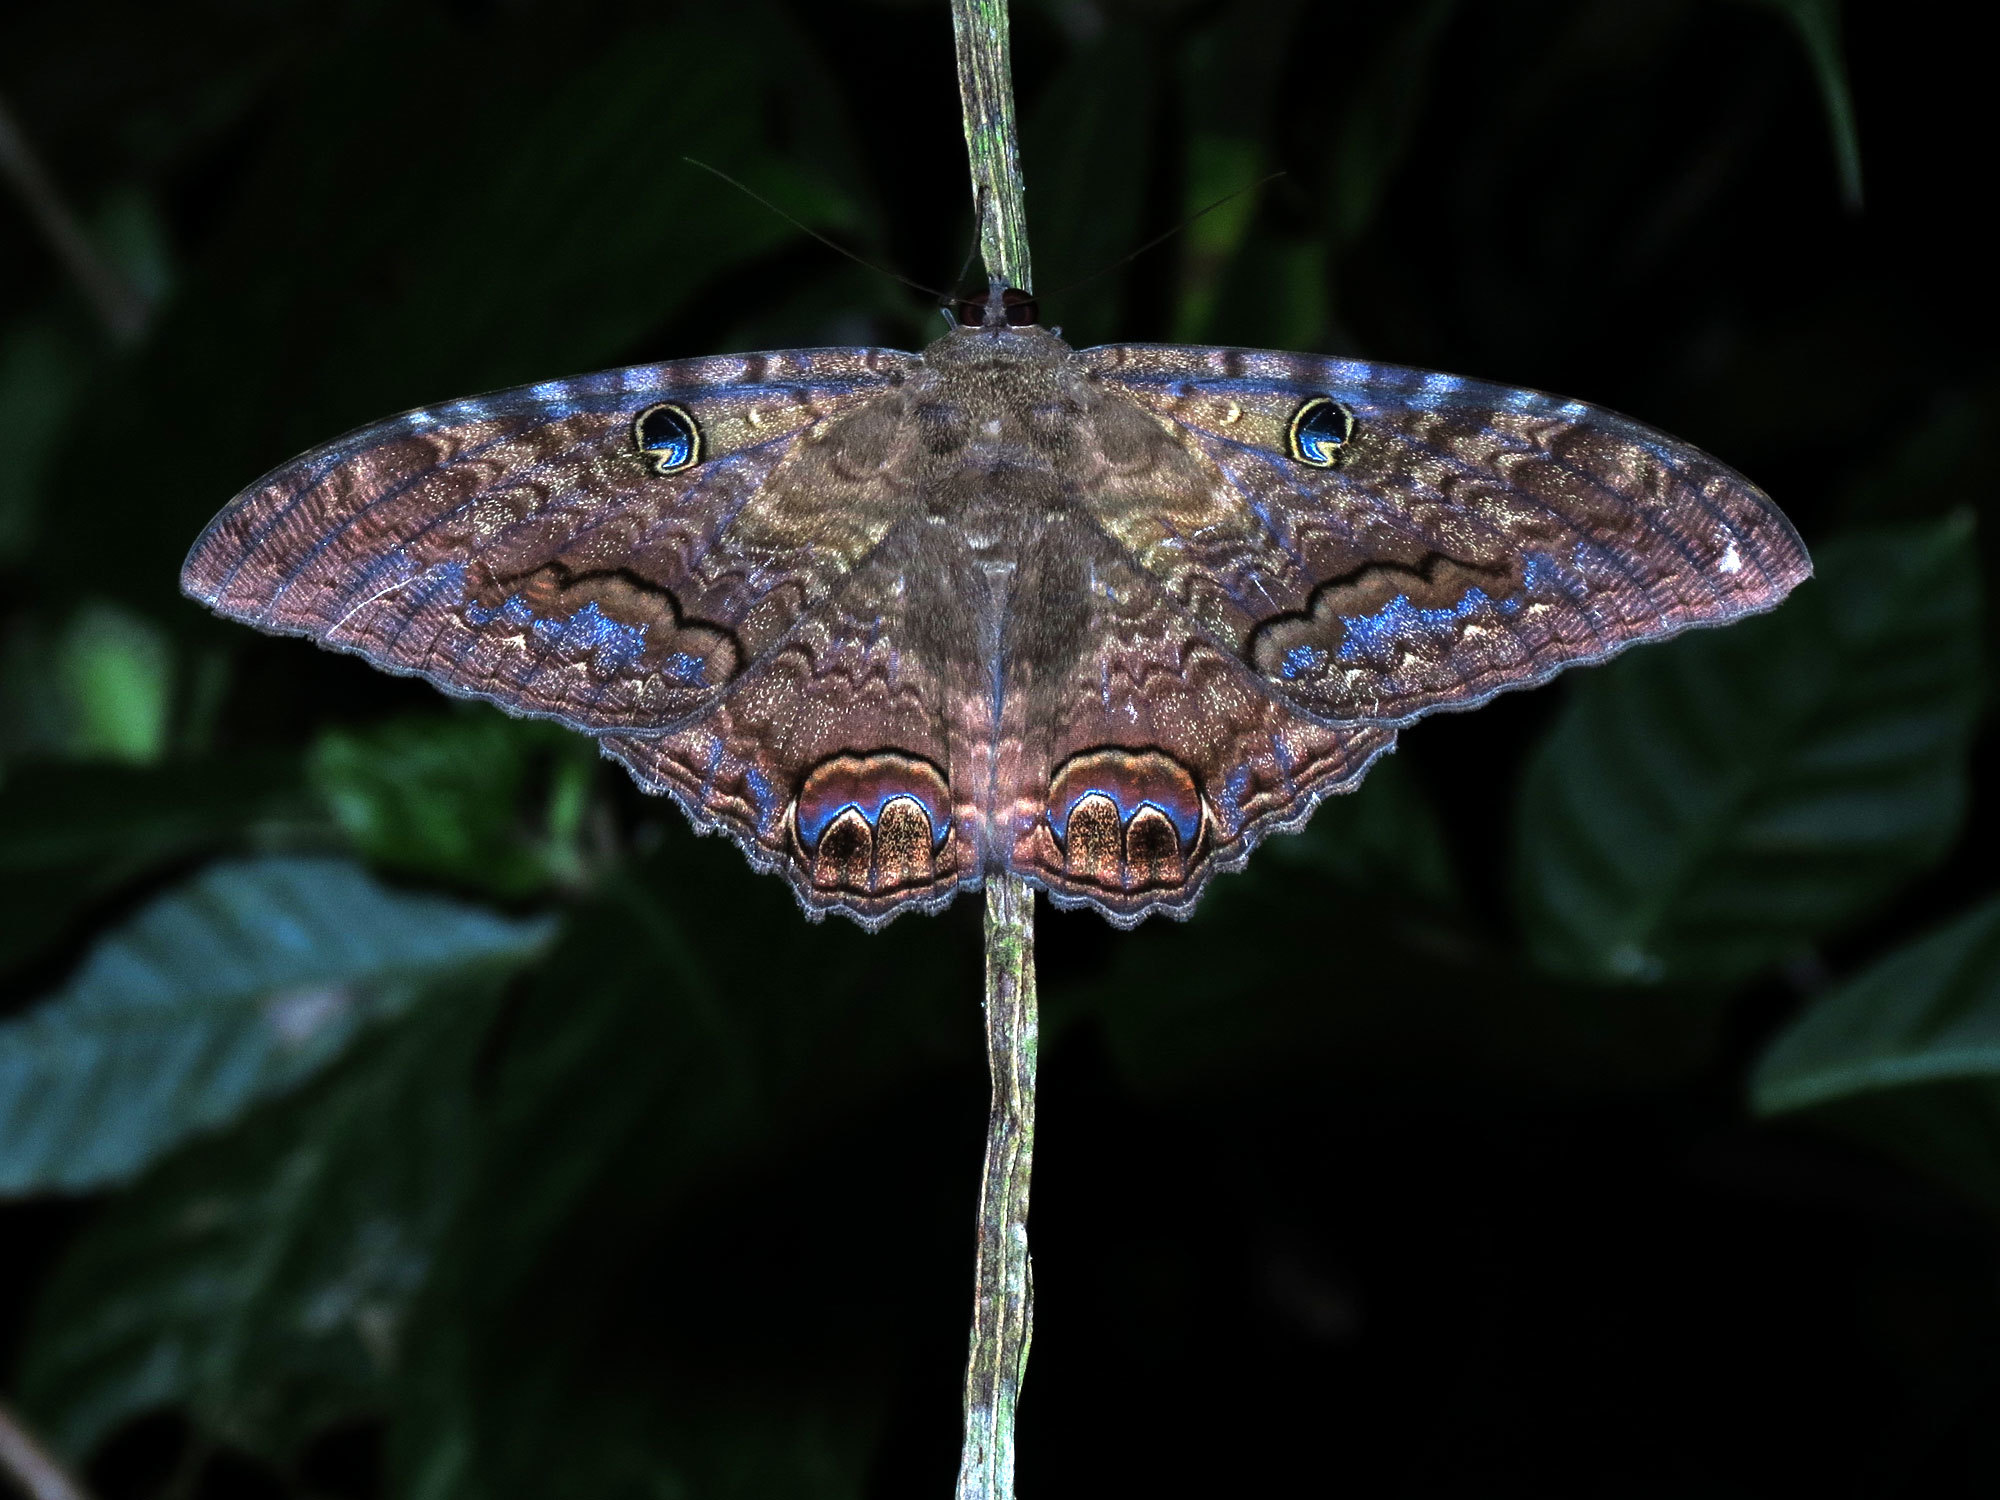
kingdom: Animalia
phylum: Arthropoda
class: Insecta
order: Lepidoptera
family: Erebidae
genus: Ascalapha
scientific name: Ascalapha odorata
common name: Black witch
